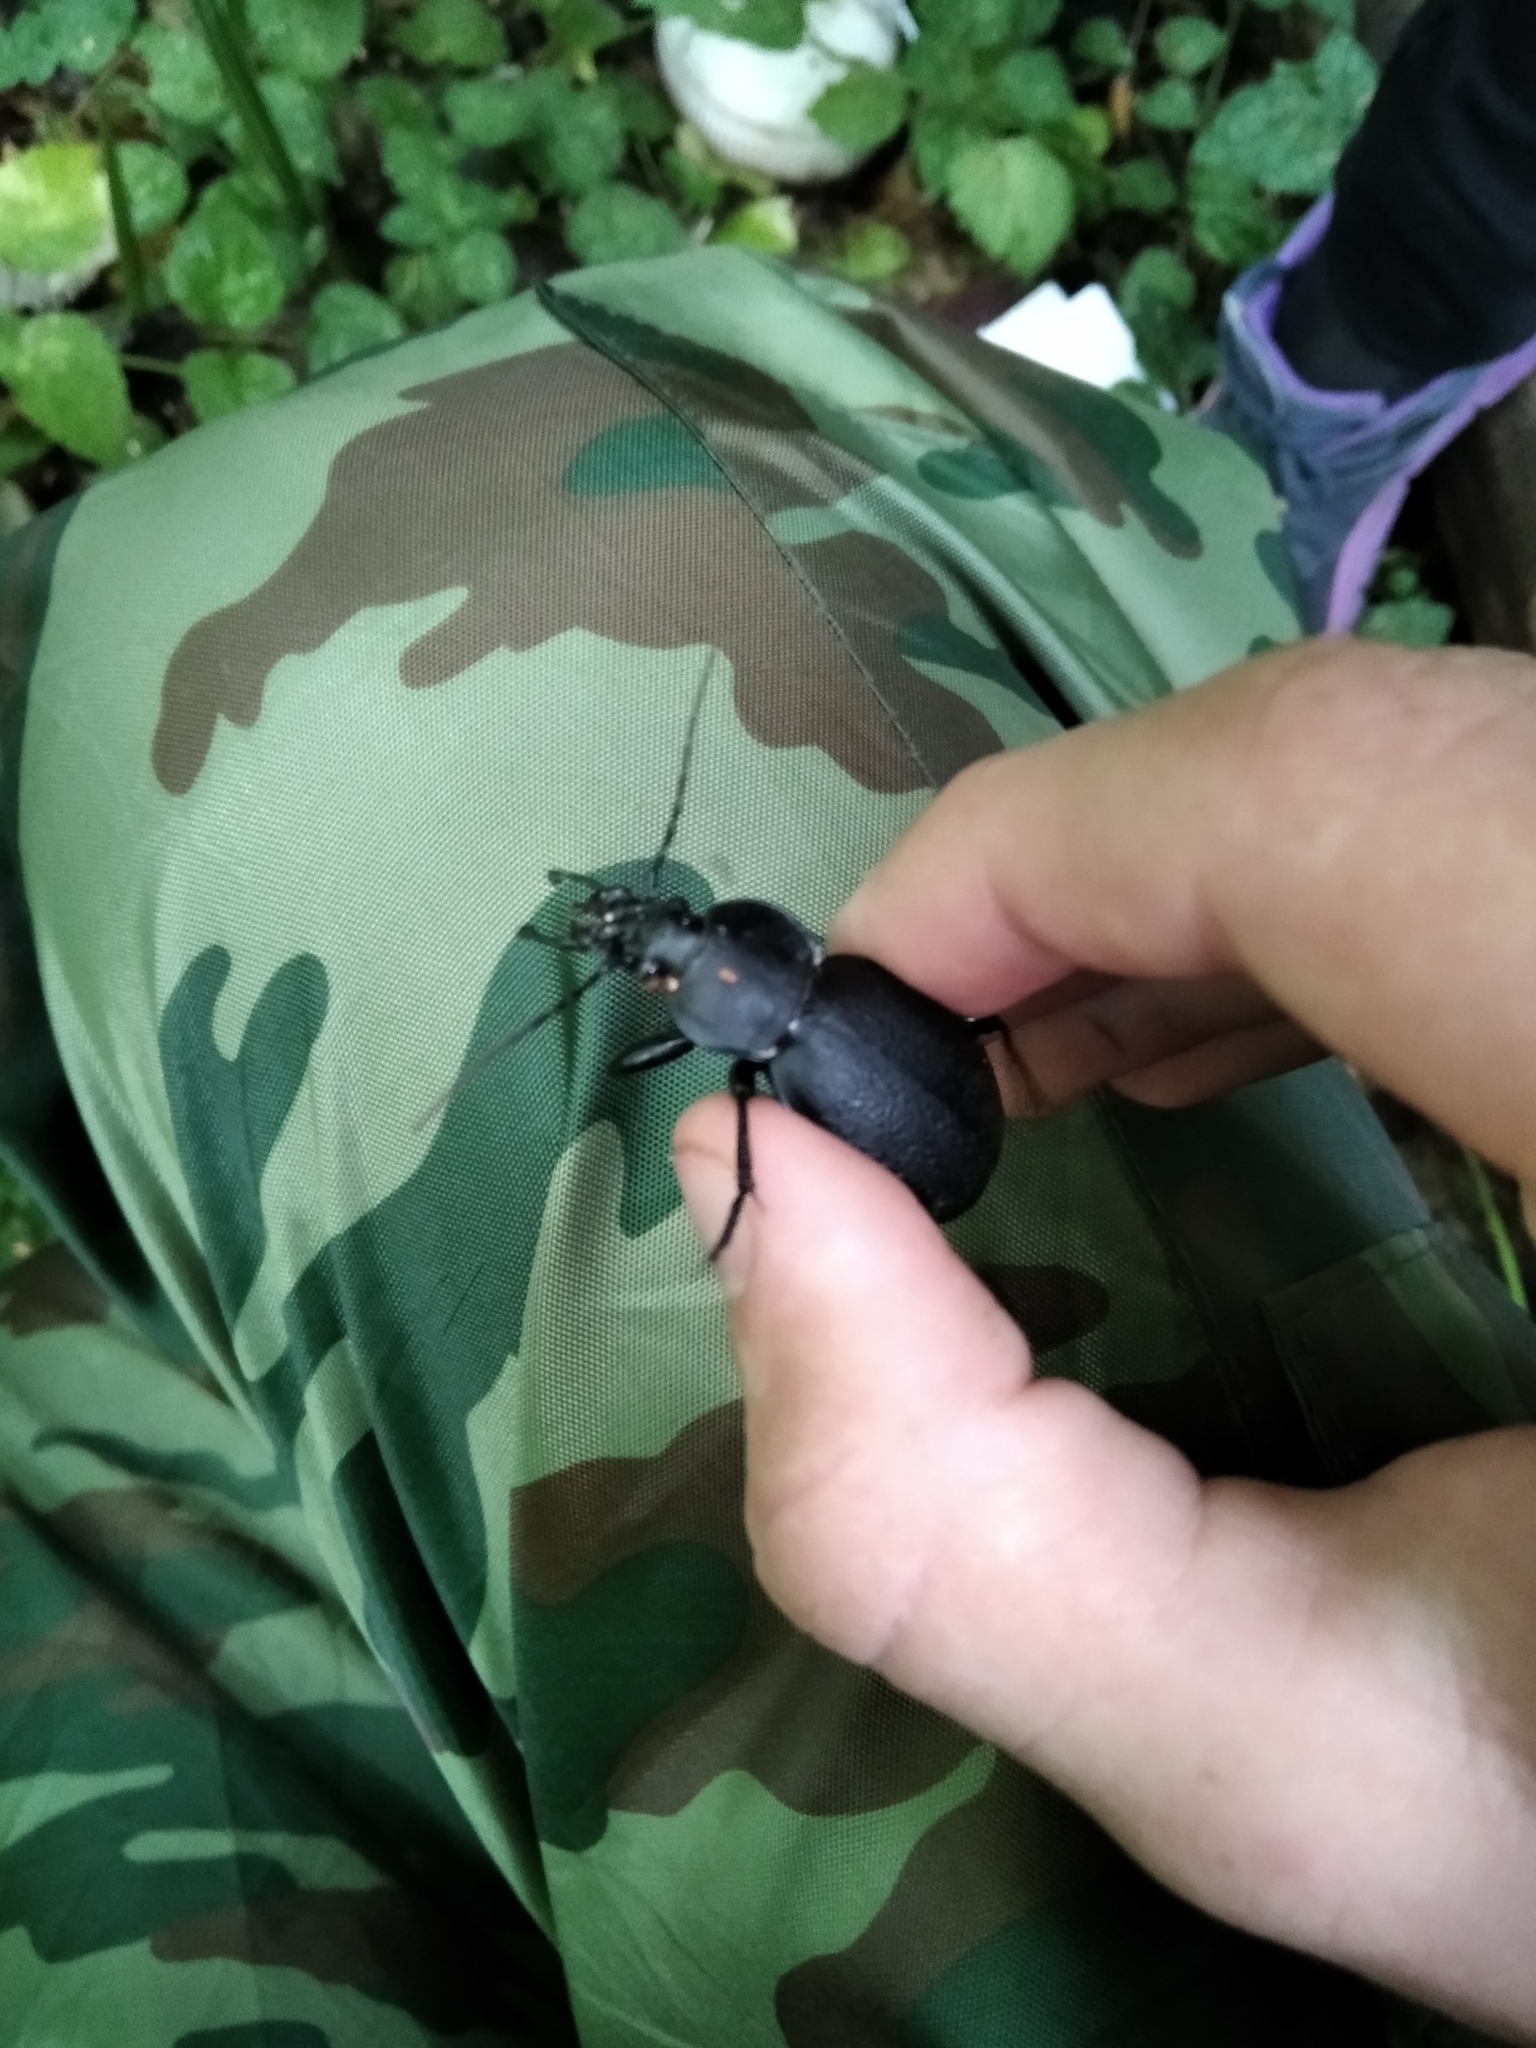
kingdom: Animalia
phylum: Arthropoda
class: Insecta
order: Coleoptera
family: Carabidae
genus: Carabus
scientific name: Carabus coriaceus
